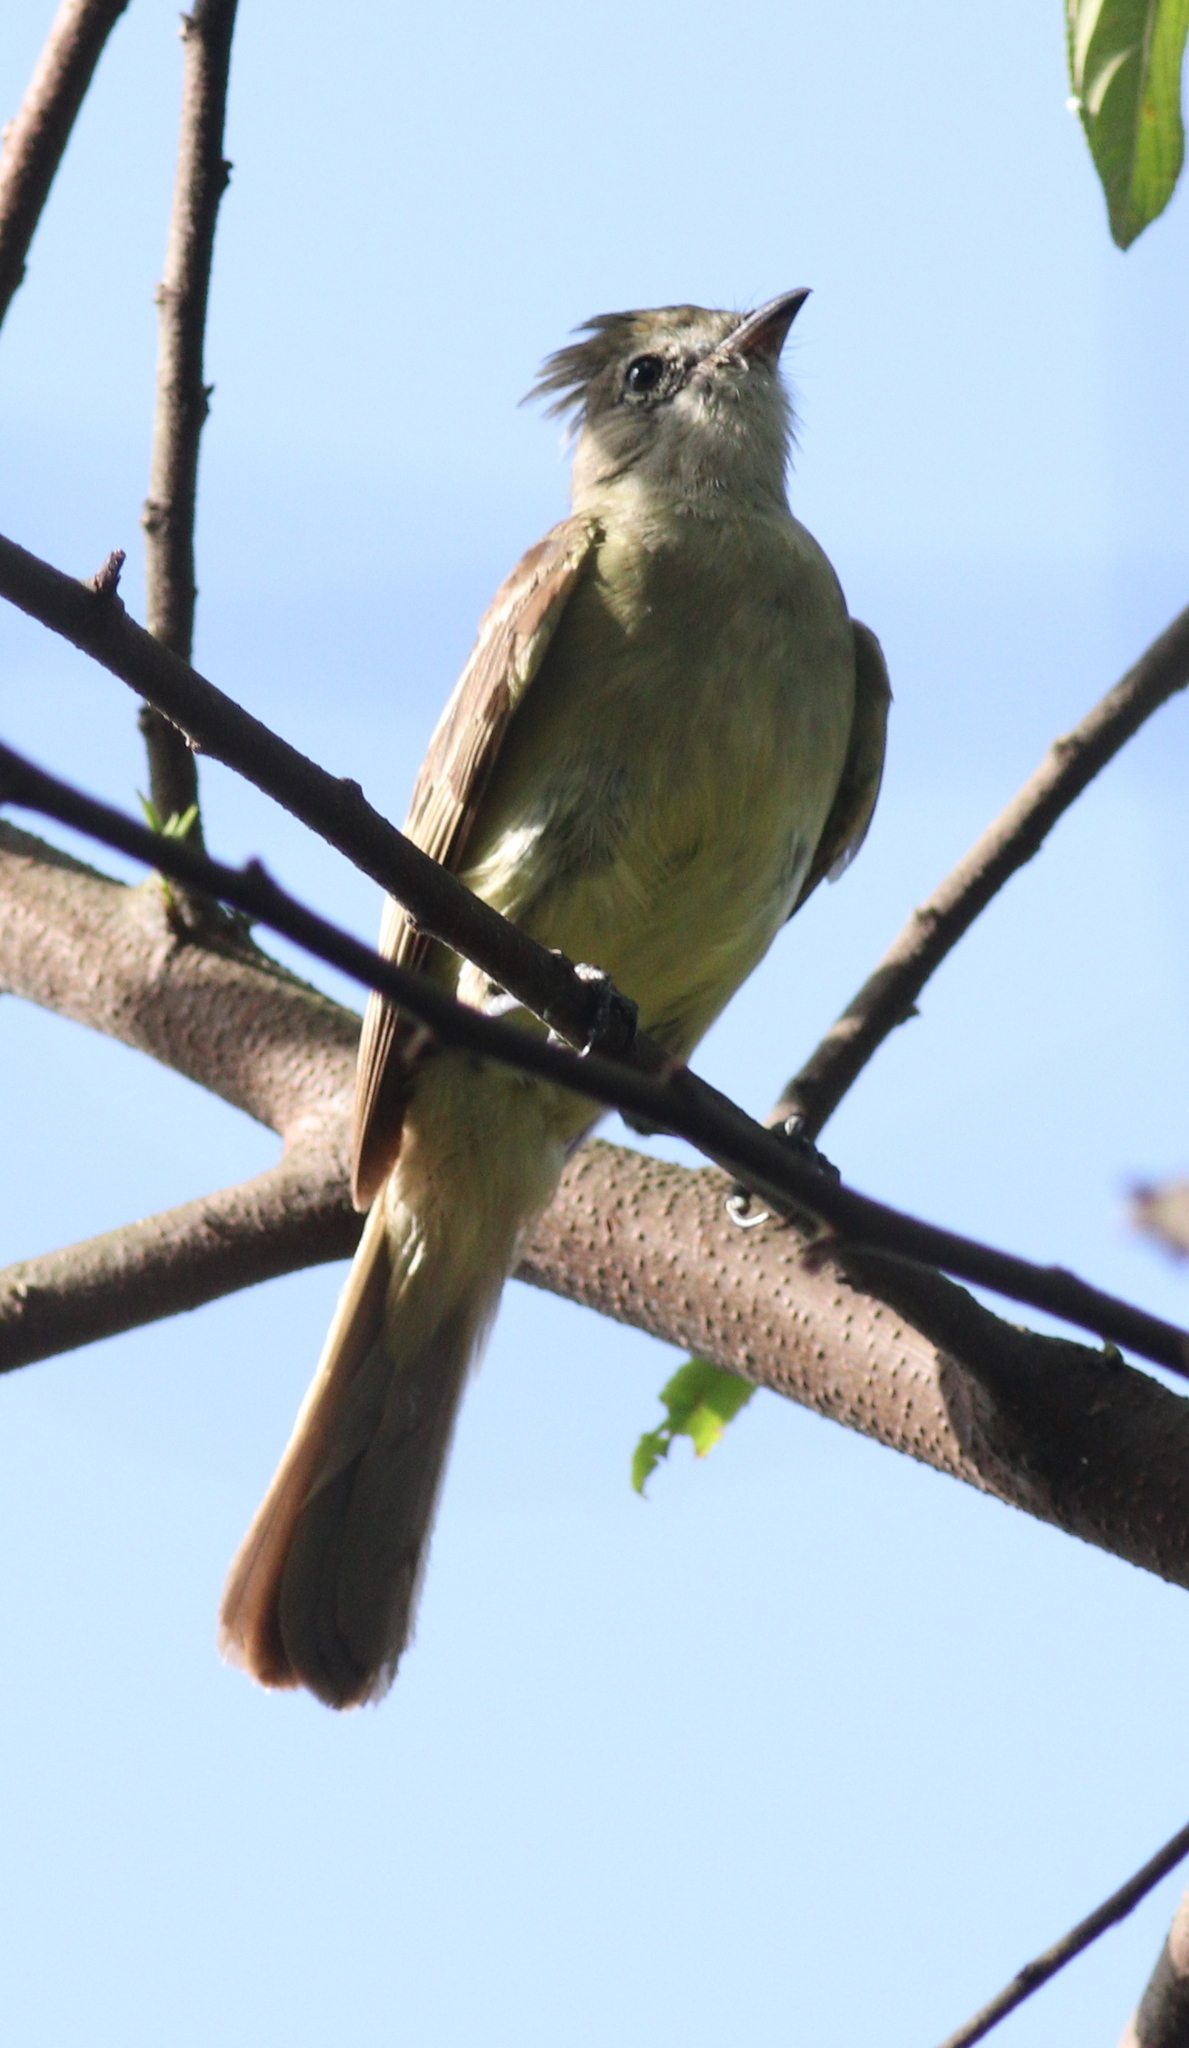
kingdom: Animalia
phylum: Chordata
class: Aves
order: Passeriformes
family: Tyrannidae
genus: Elaenia
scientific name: Elaenia flavogaster
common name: Yellow-bellied elaenia
